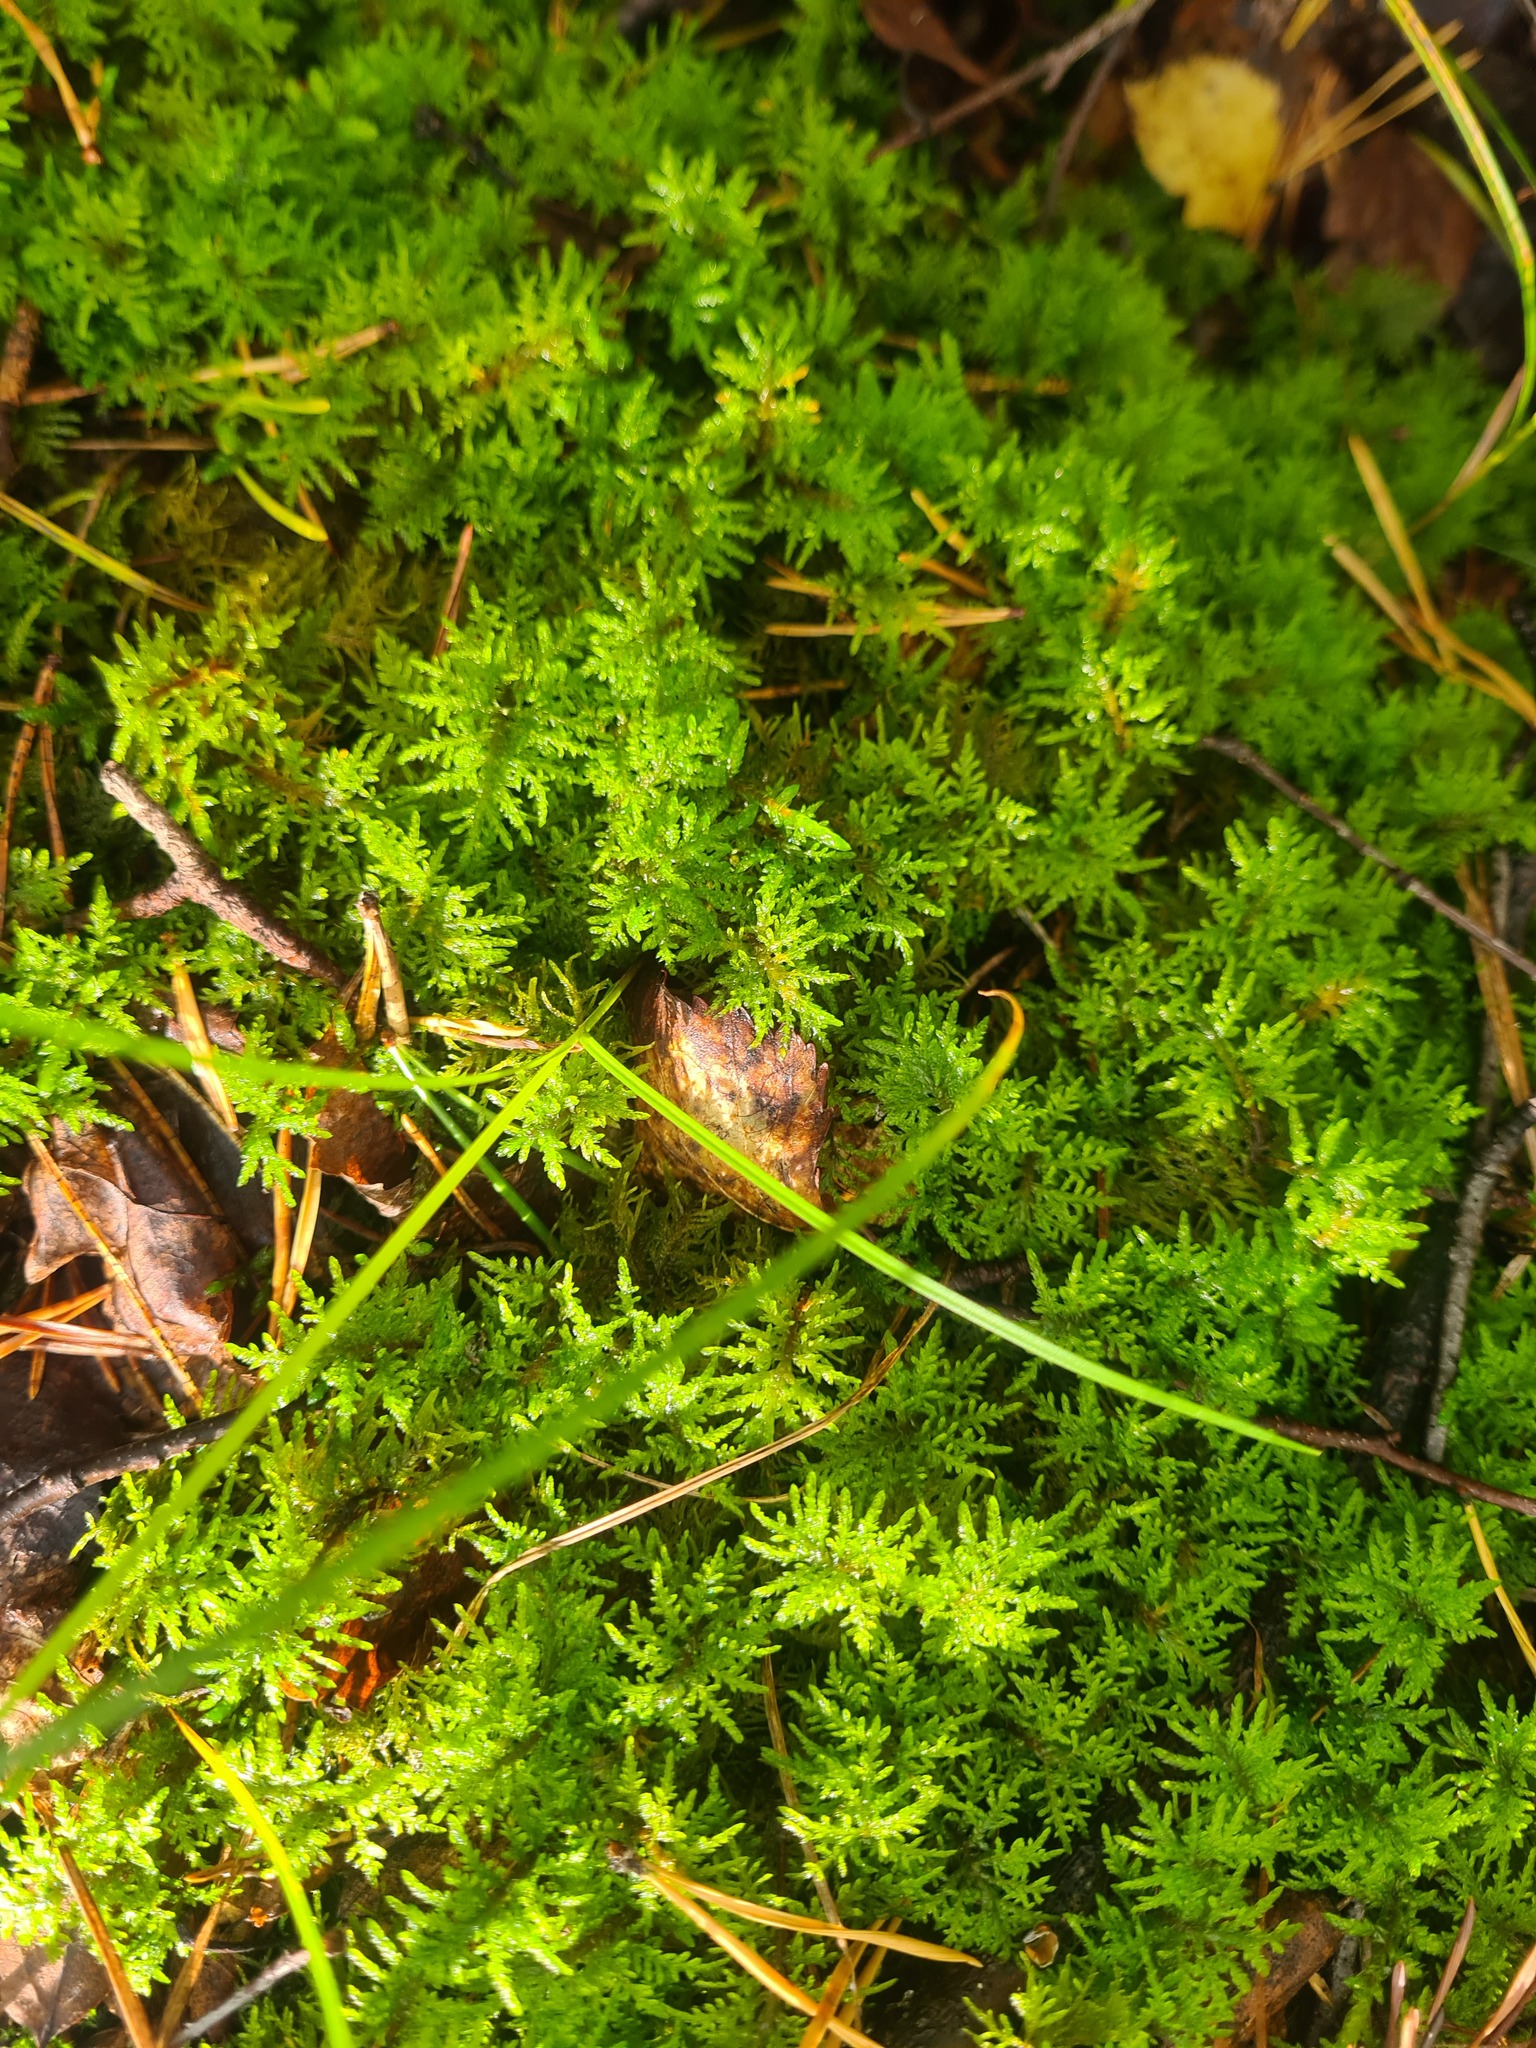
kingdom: Plantae
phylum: Bryophyta
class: Bryopsida
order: Hypnales
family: Hylocomiaceae
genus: Hylocomium
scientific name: Hylocomium splendens
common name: Stairstep moss
